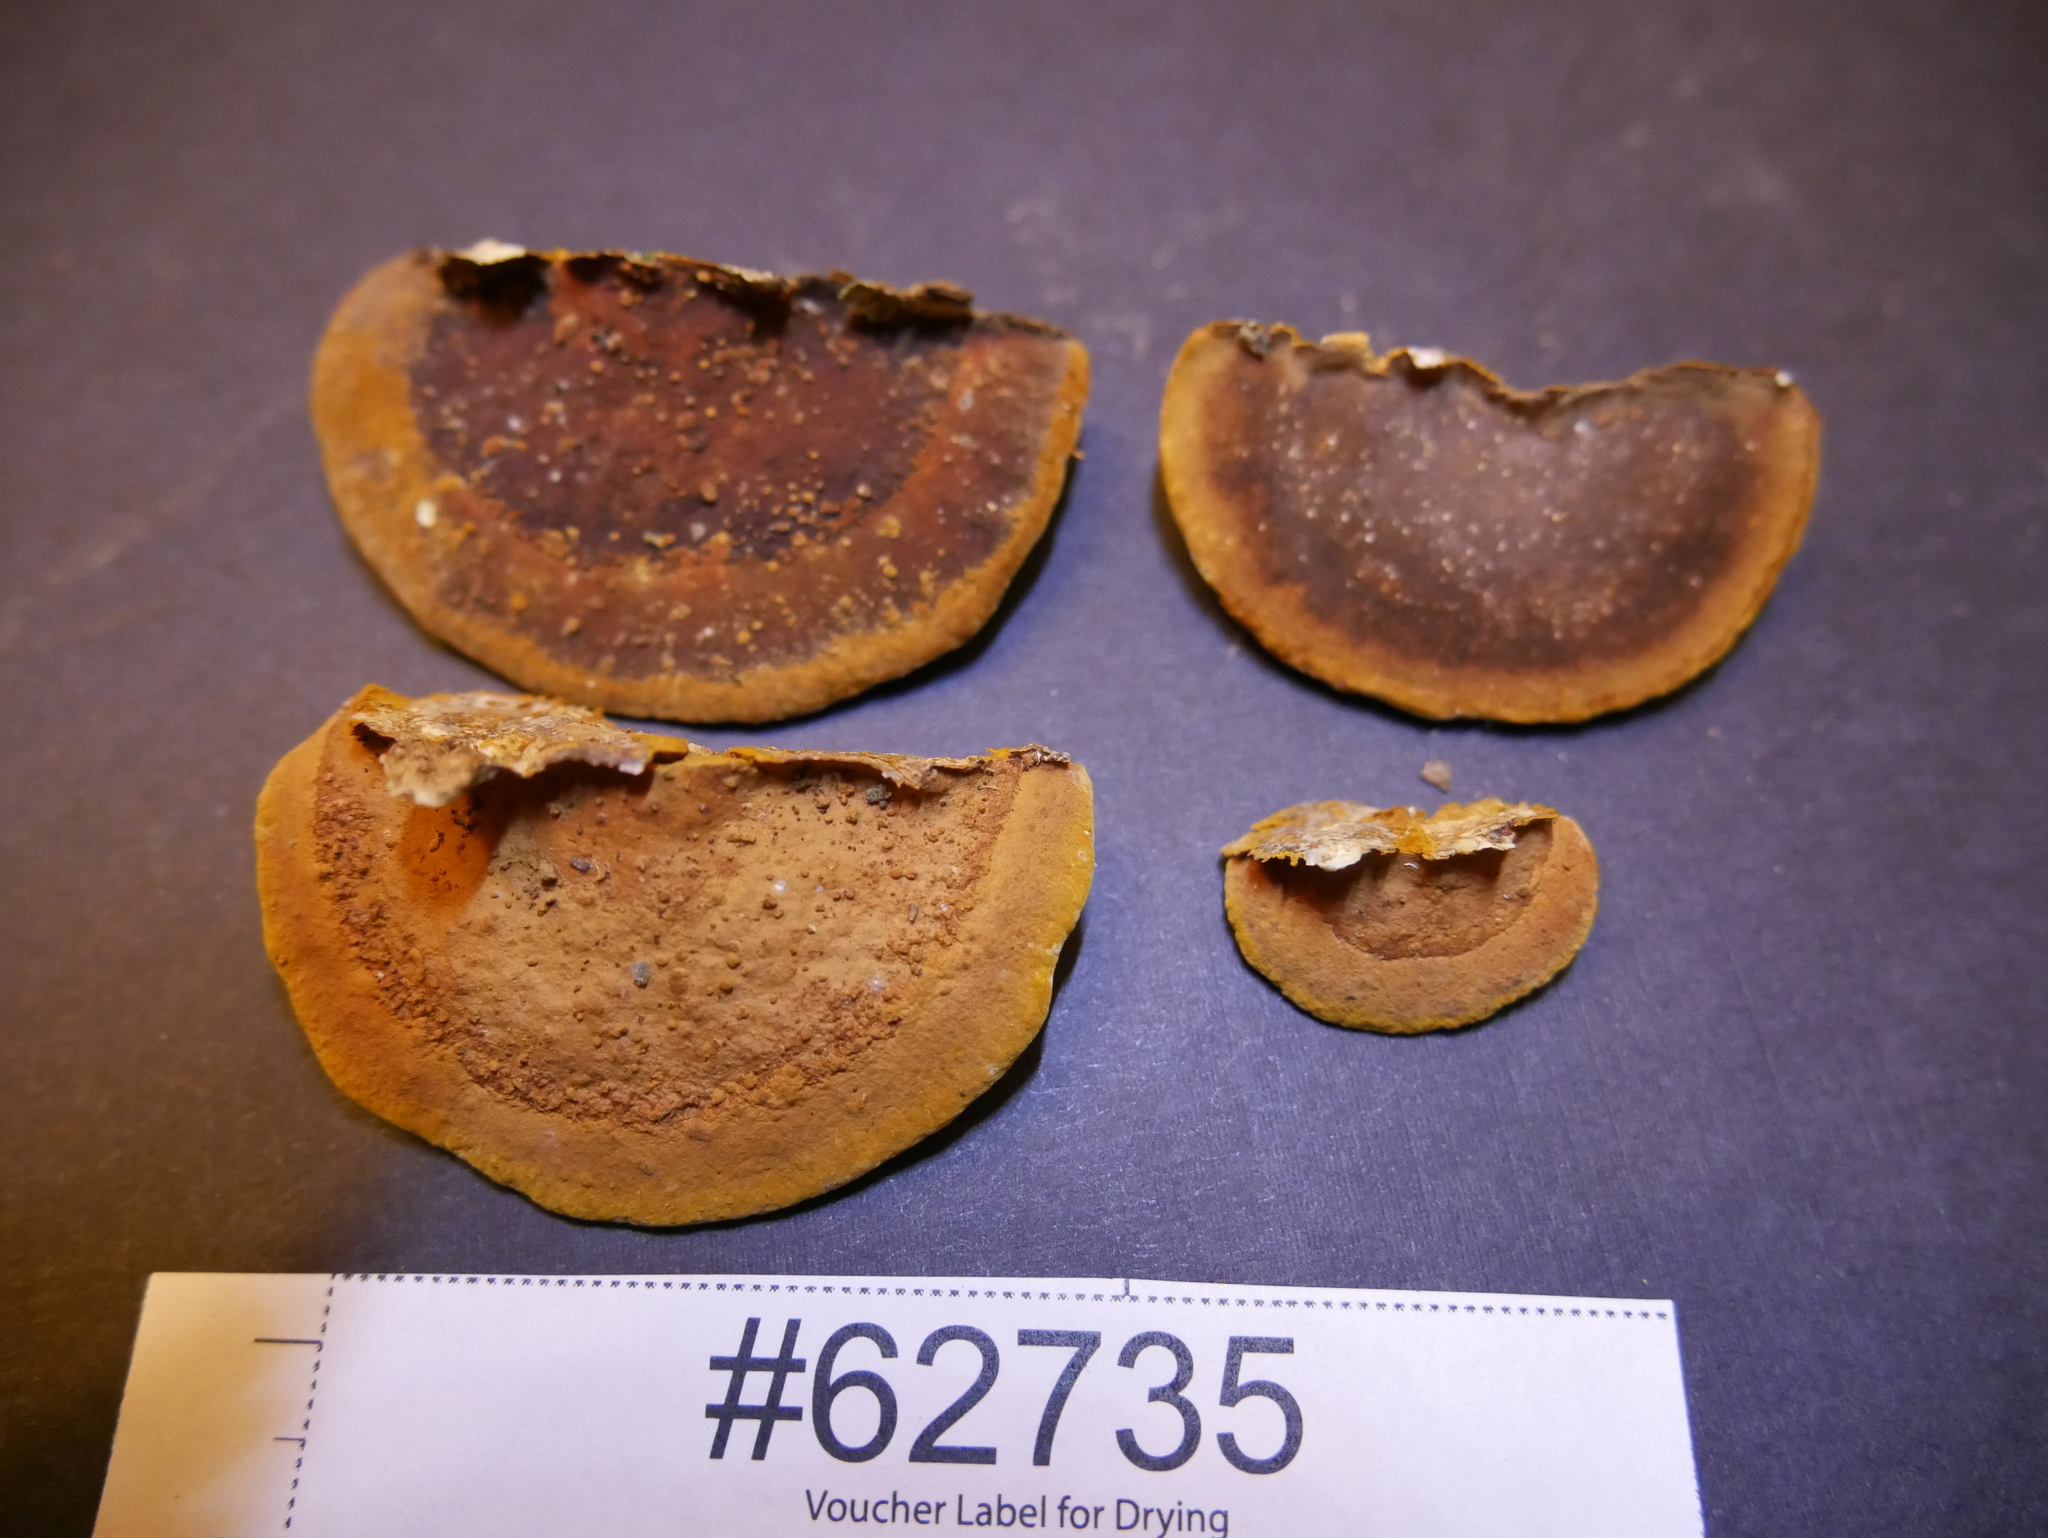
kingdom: Fungi
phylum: Basidiomycota
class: Agaricomycetes
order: Hymenochaetales
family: Hymenochaetaceae
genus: Phellinus
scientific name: Phellinus gilvus
